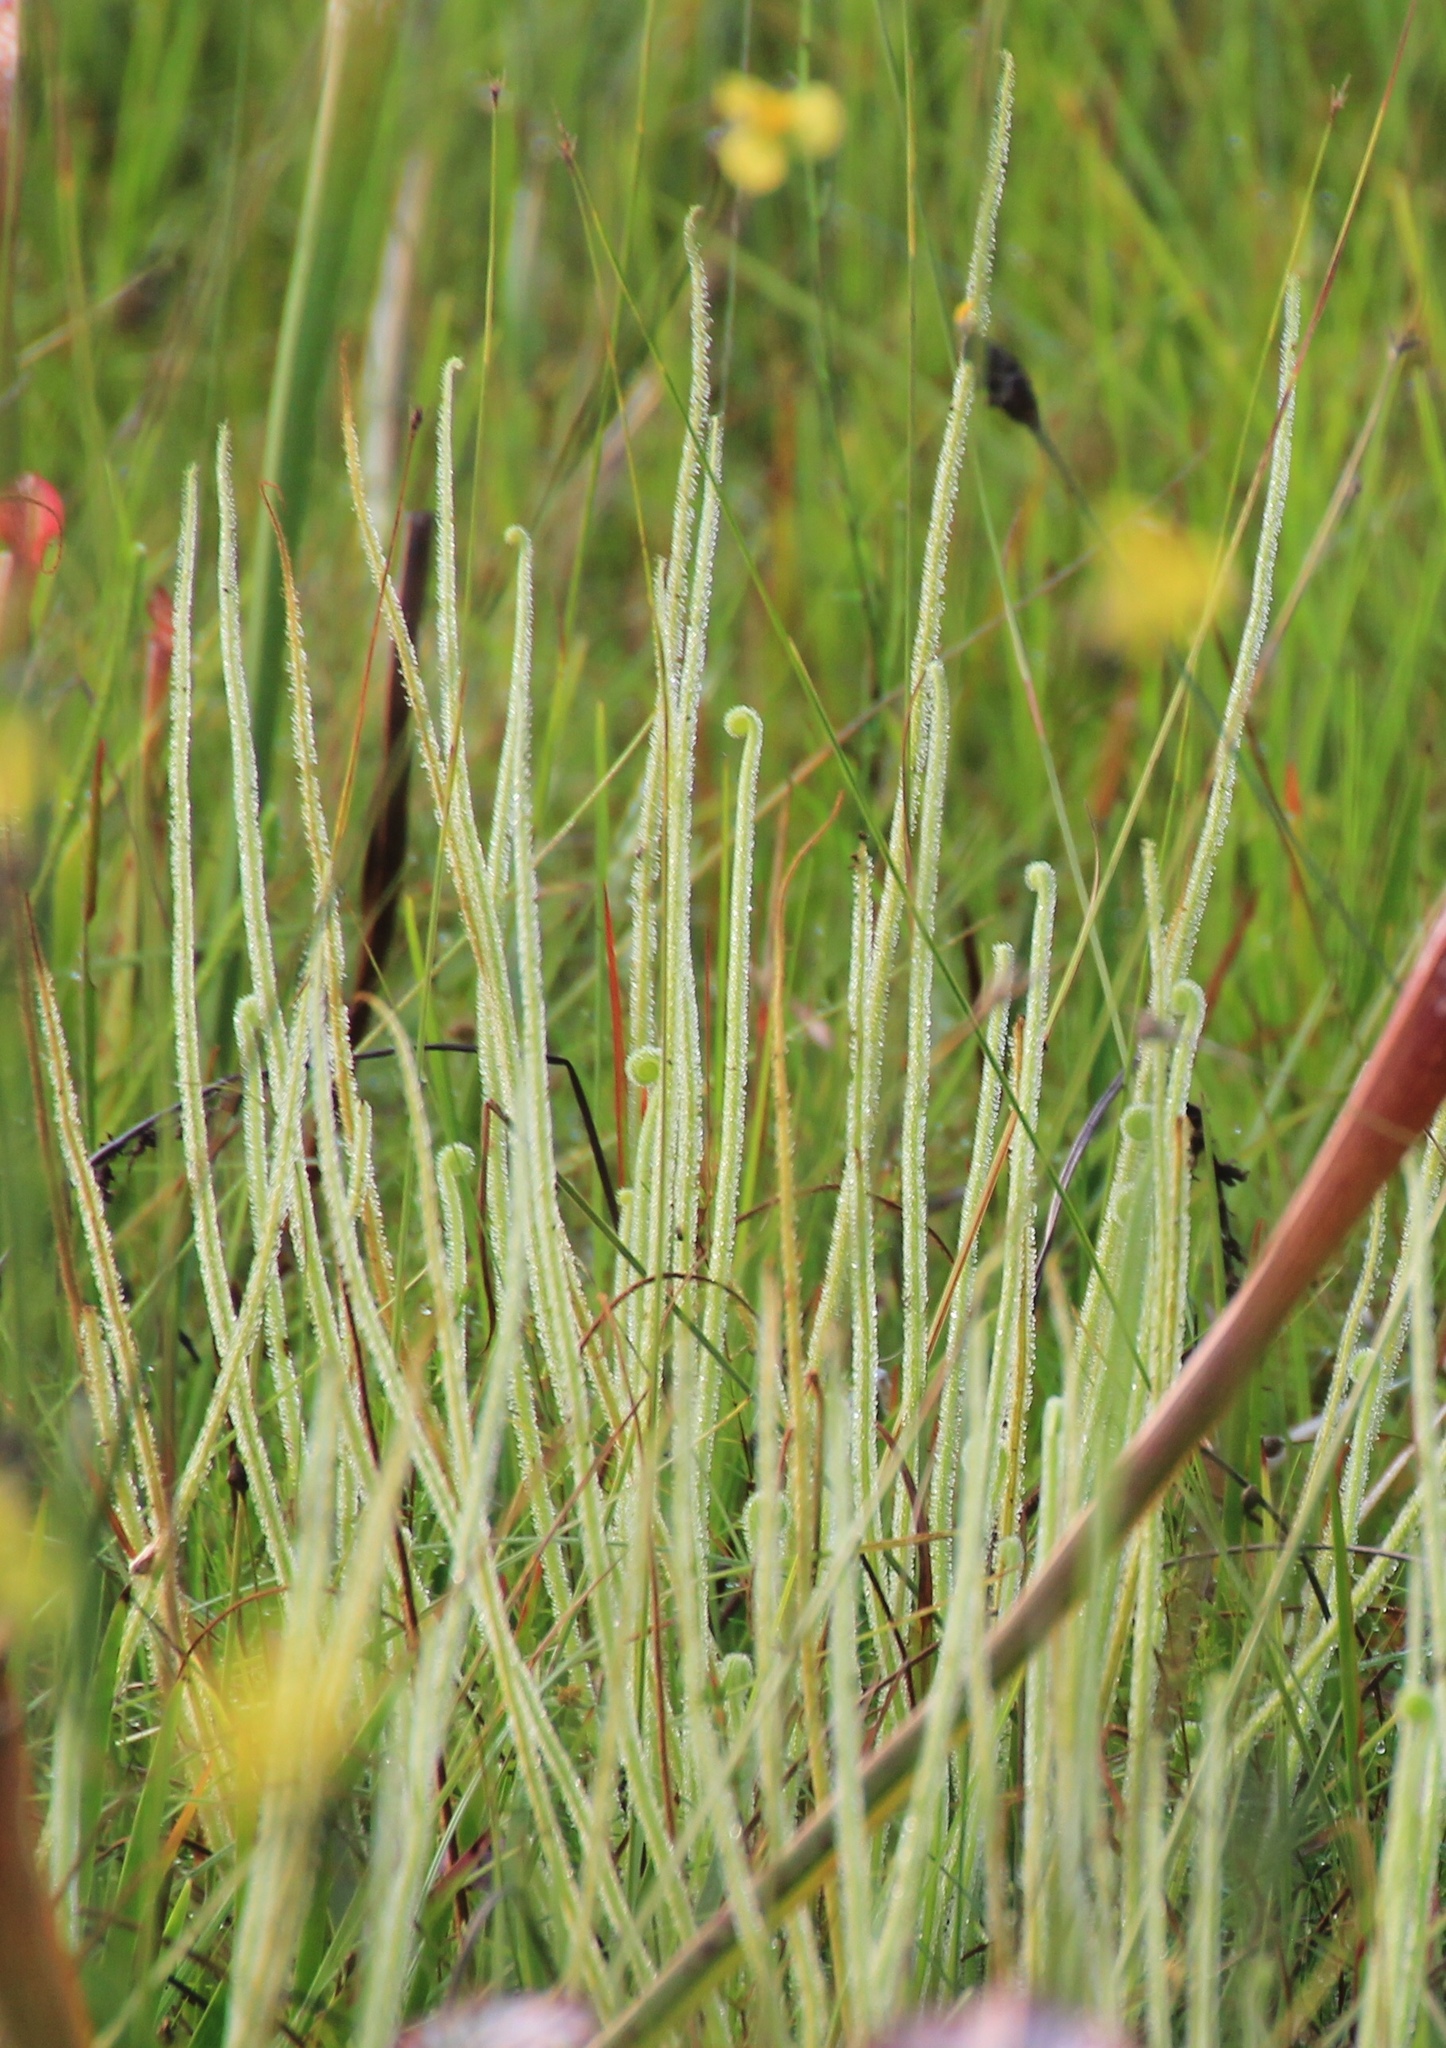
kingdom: Plantae
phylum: Tracheophyta
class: Magnoliopsida
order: Caryophyllales
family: Droseraceae
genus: Drosera
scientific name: Drosera filiformis
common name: Dew-thread
